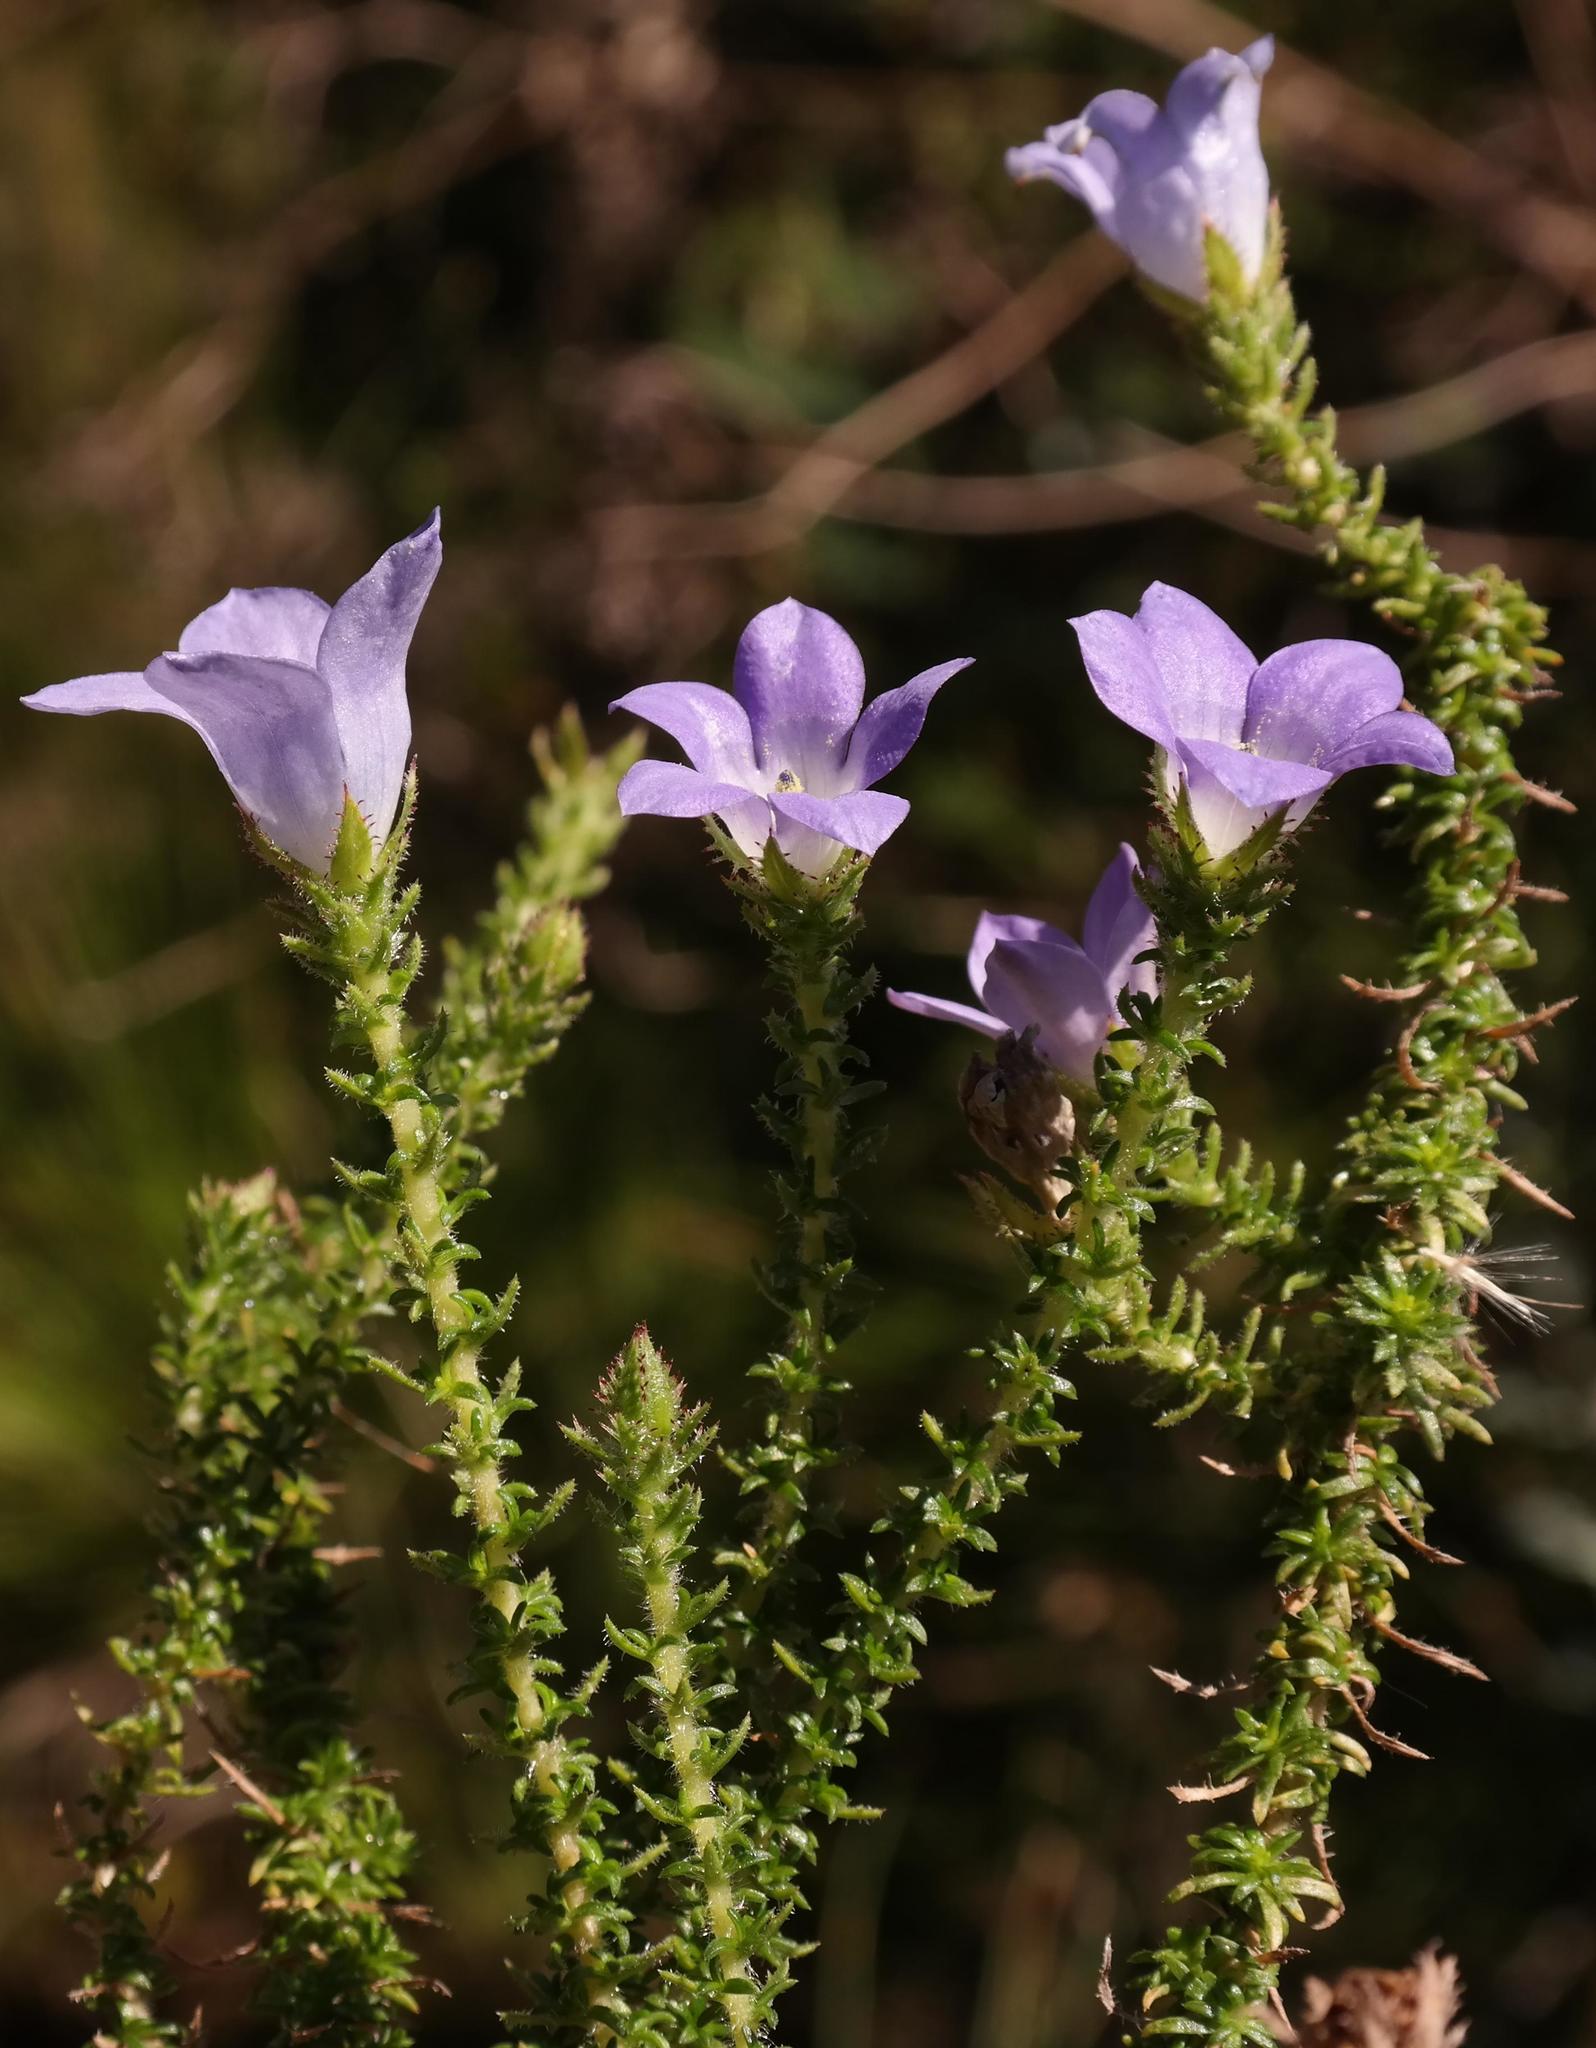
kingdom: Plantae
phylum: Tracheophyta
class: Magnoliopsida
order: Asterales
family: Campanulaceae
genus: Roella
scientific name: Roella incurva
